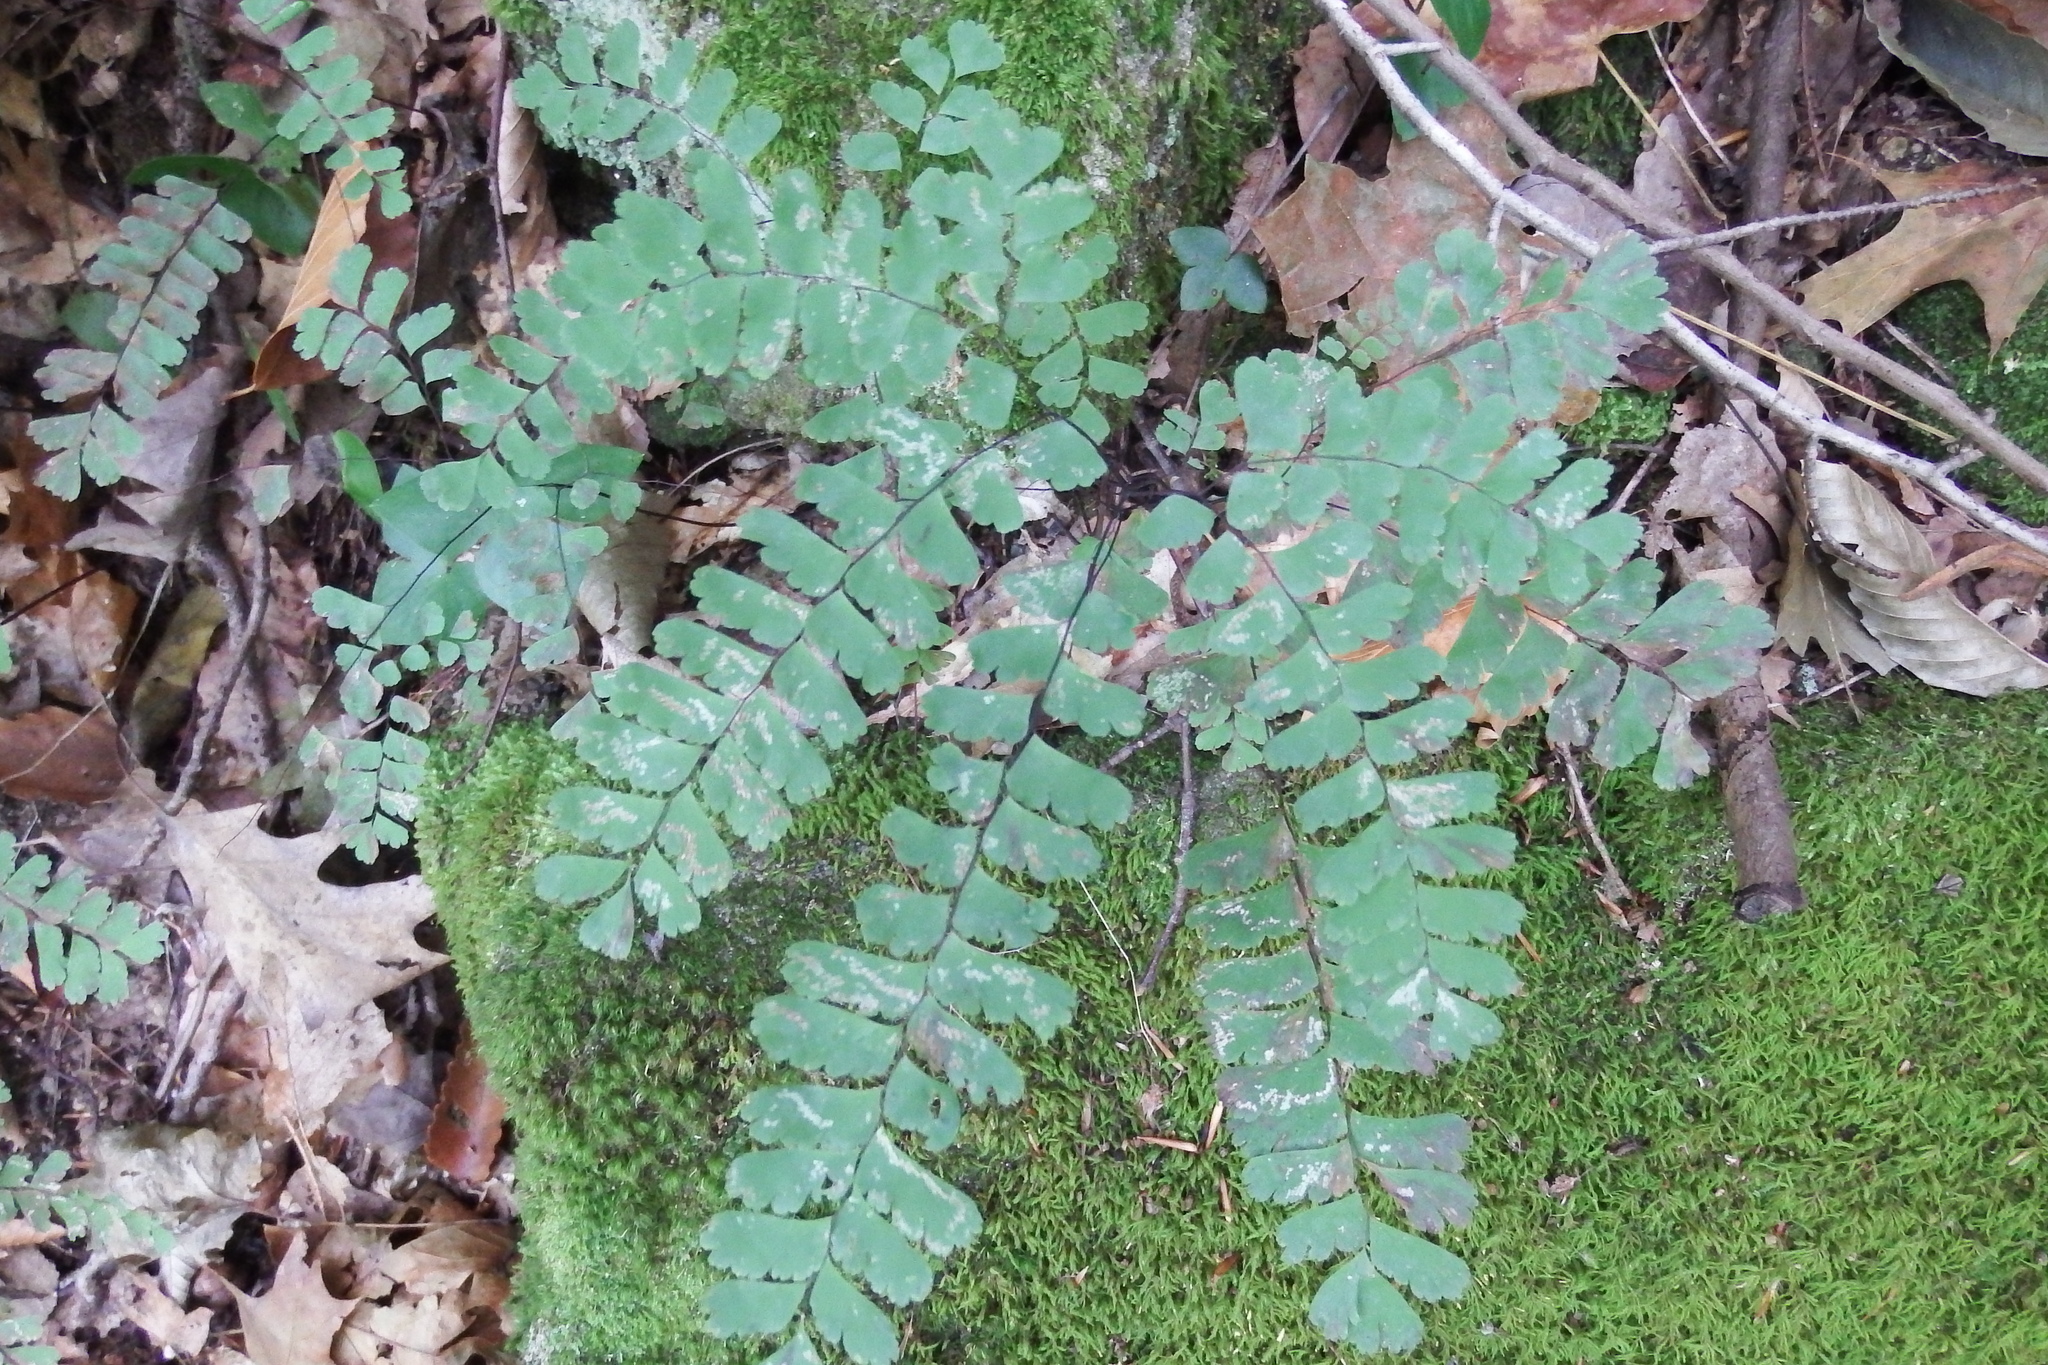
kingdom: Plantae
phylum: Tracheophyta
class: Polypodiopsida
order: Polypodiales
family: Pteridaceae
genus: Adiantum
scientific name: Adiantum pedatum
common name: Five-finger fern
